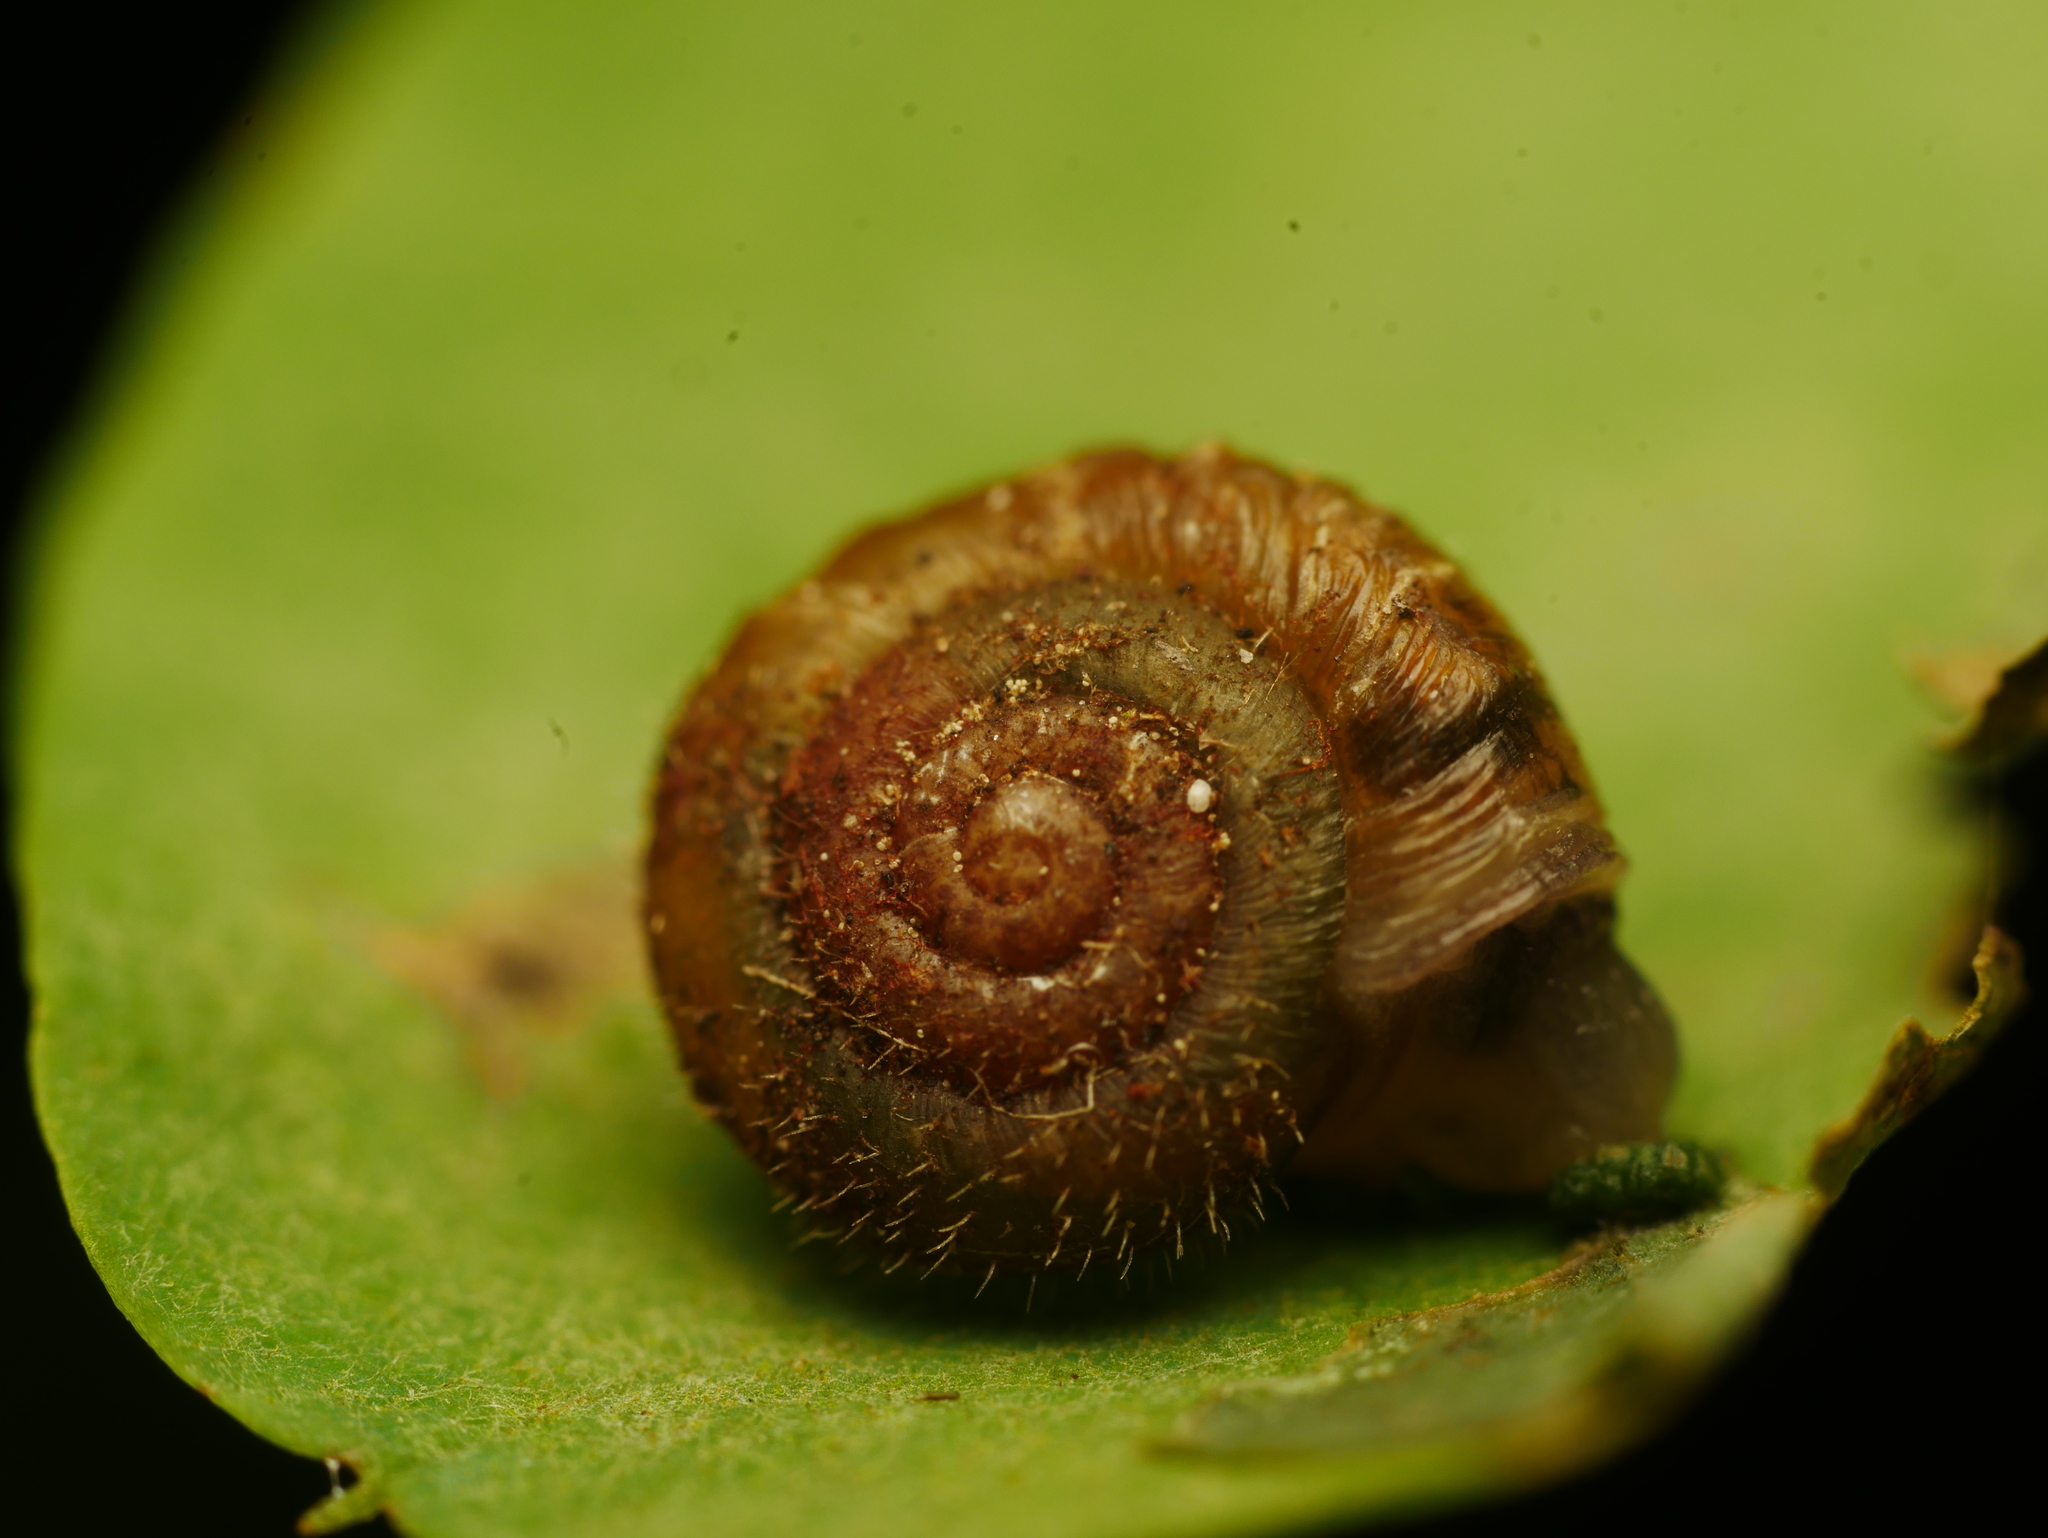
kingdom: Animalia
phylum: Mollusca
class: Gastropoda
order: Stylommatophora
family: Hygromiidae
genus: Trochulus
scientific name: Trochulus hispidus
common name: Hairy snail
